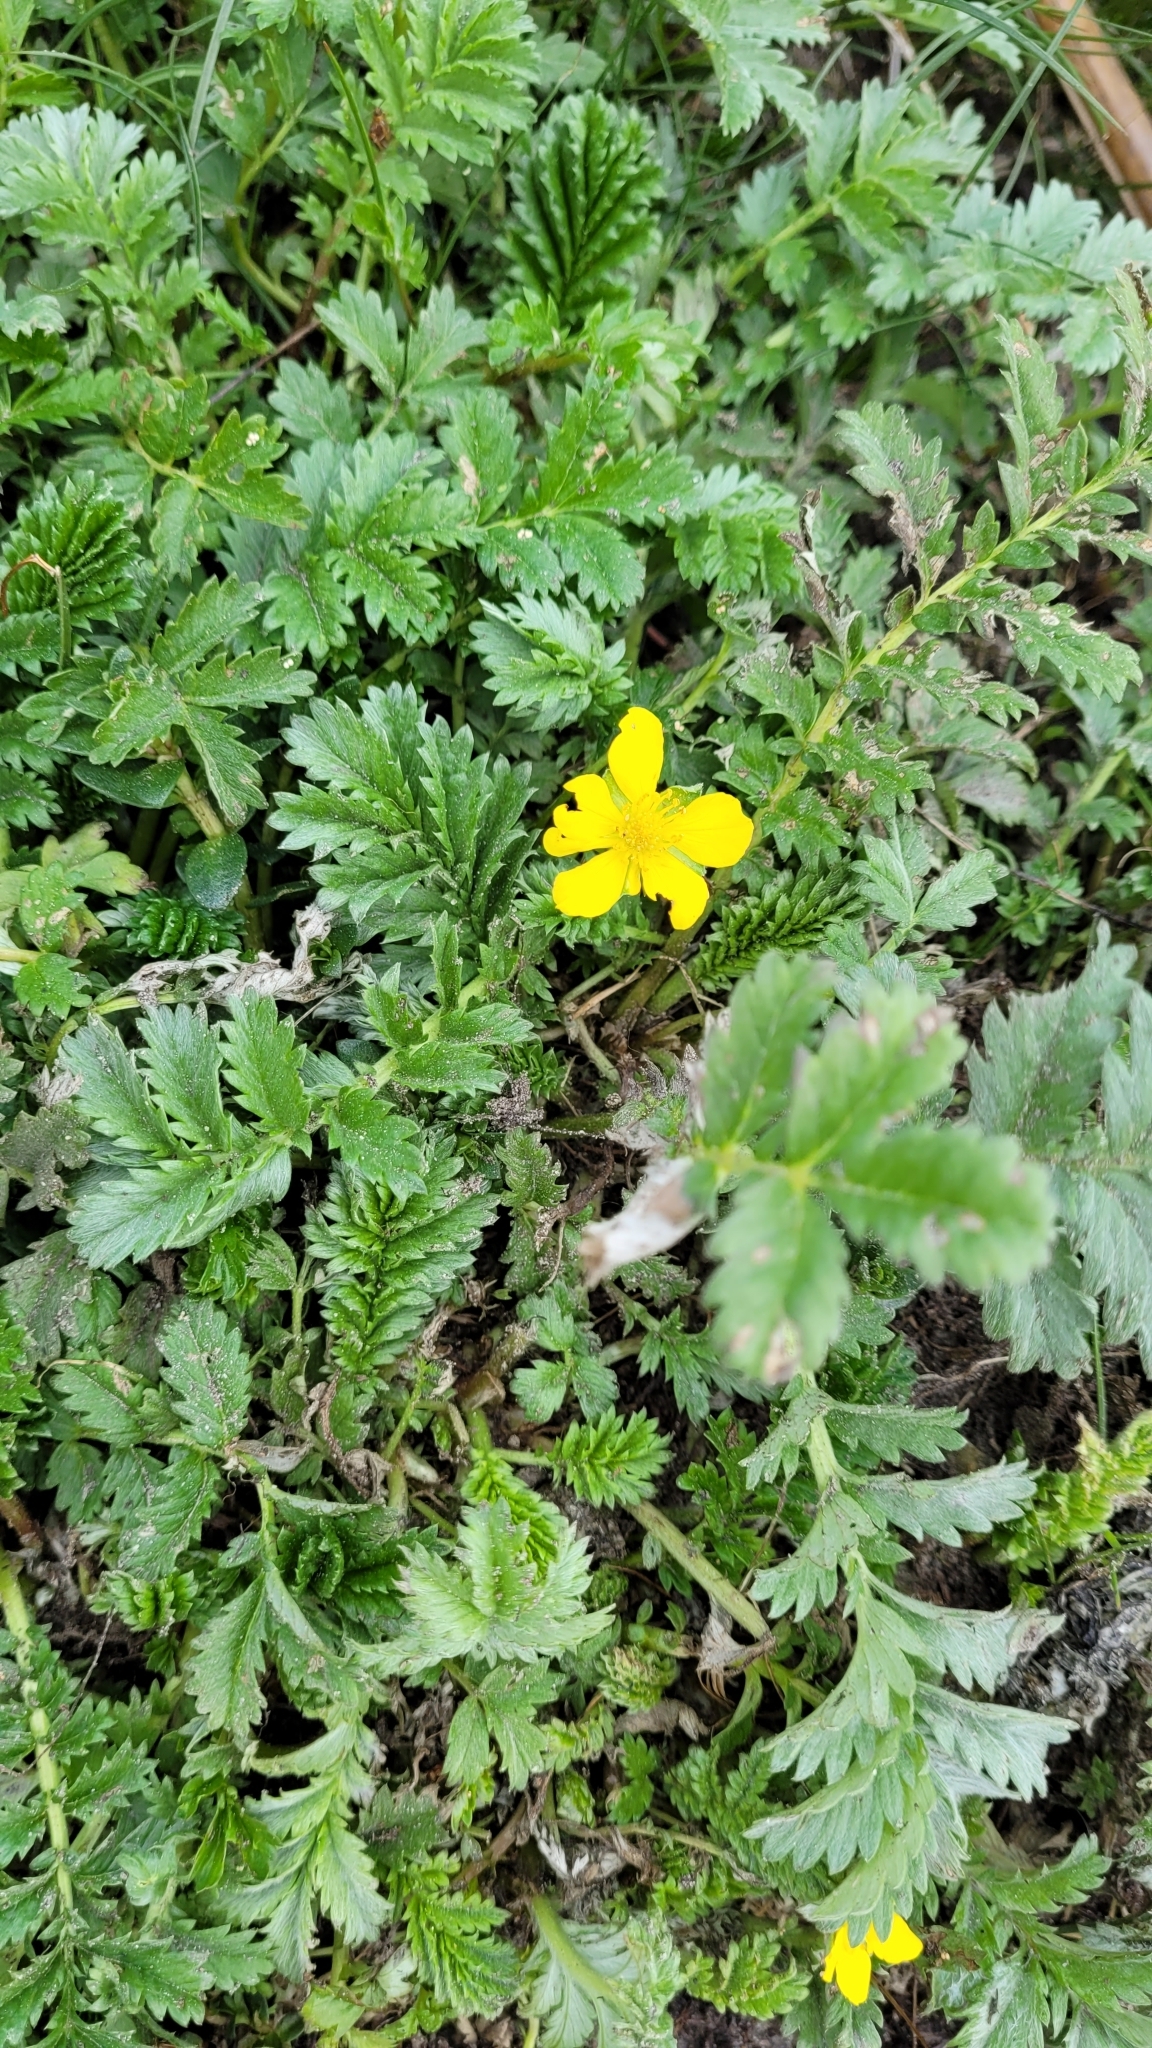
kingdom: Plantae
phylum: Tracheophyta
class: Magnoliopsida
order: Rosales
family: Rosaceae
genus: Argentina
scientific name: Argentina anserina
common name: Common silverweed
